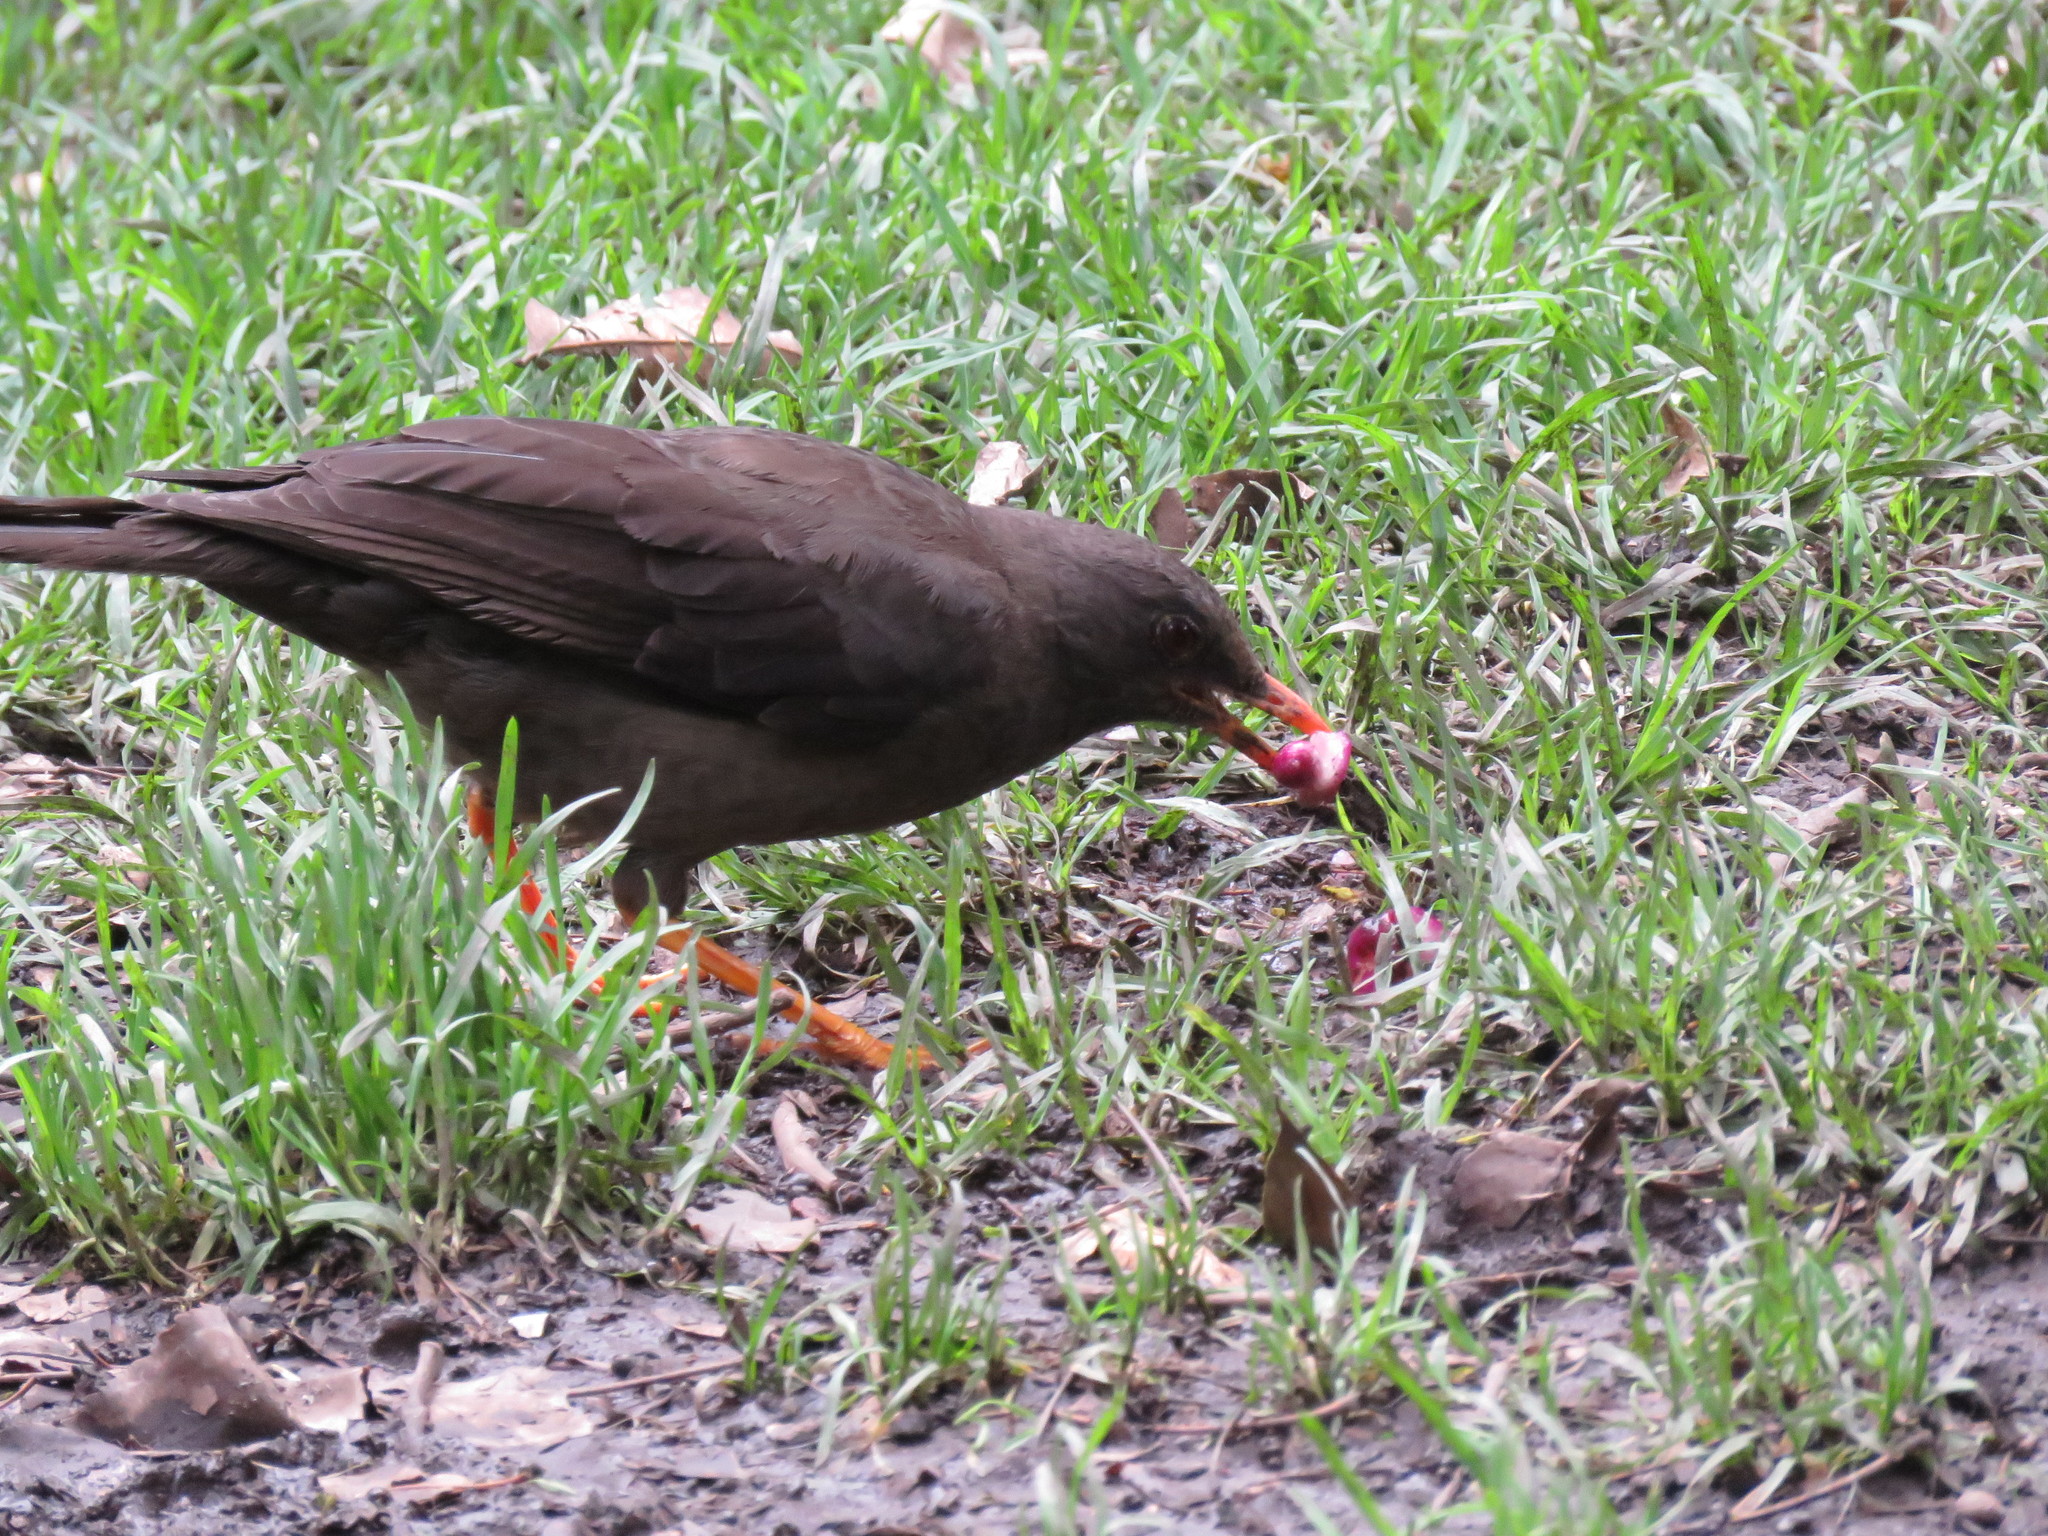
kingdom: Animalia
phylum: Chordata
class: Aves
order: Passeriformes
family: Turdidae
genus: Turdus
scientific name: Turdus fuscater
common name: Great thrush
